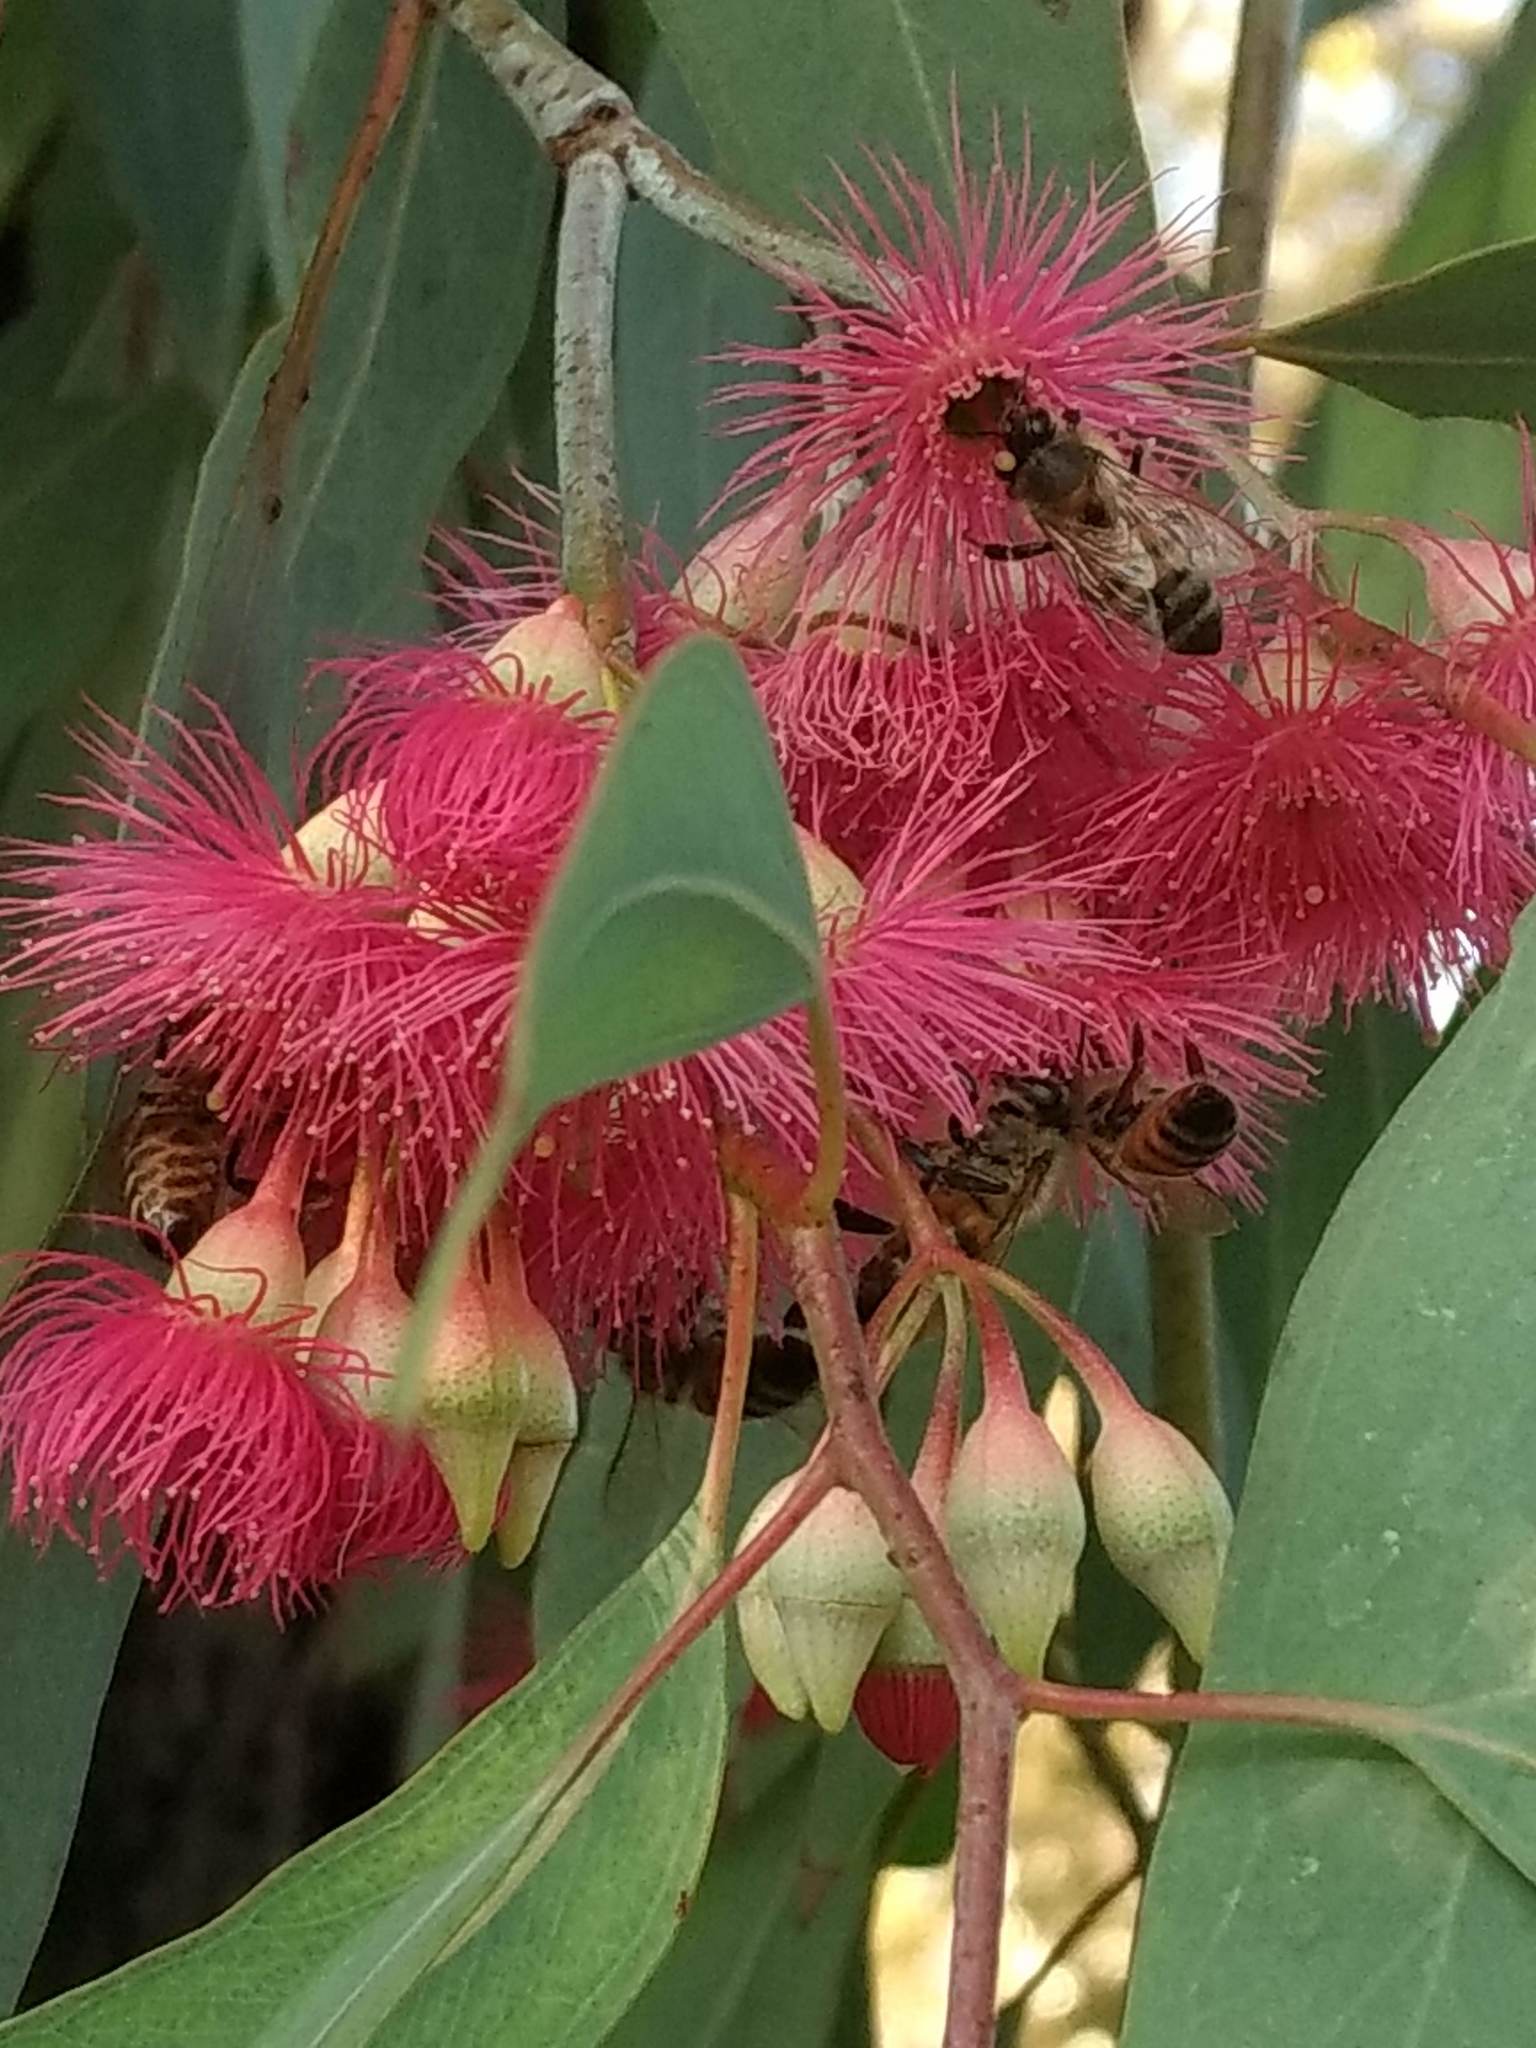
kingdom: Animalia
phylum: Arthropoda
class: Insecta
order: Hymenoptera
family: Apidae
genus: Apis
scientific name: Apis mellifera
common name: Honey bee
